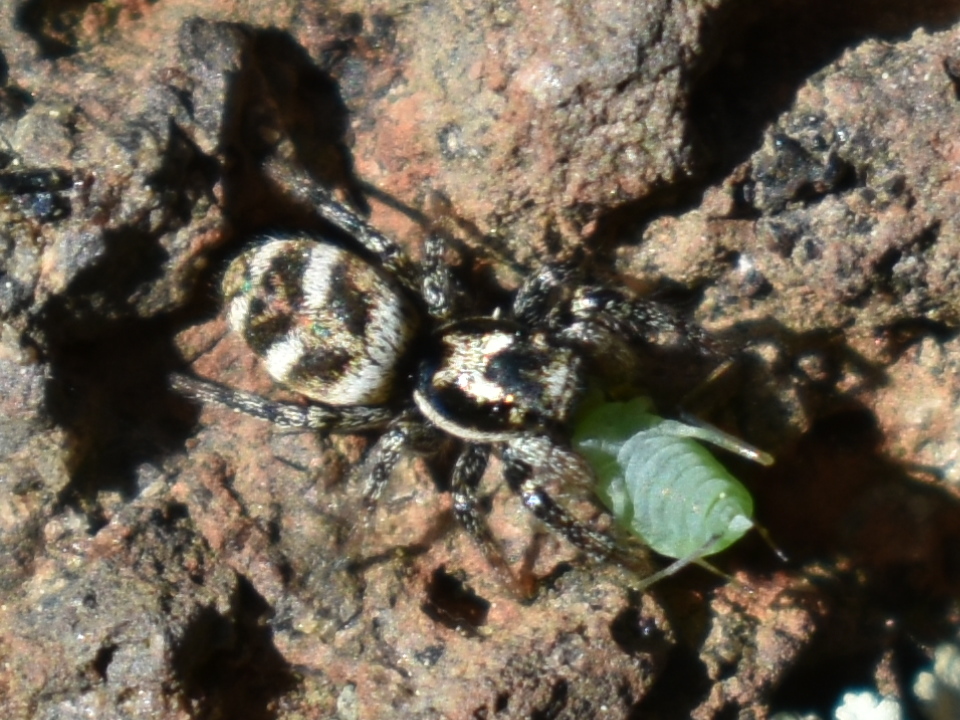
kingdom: Animalia
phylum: Arthropoda
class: Arachnida
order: Araneae
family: Salticidae
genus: Salticus
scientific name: Salticus scenicus
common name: Zebra jumper
